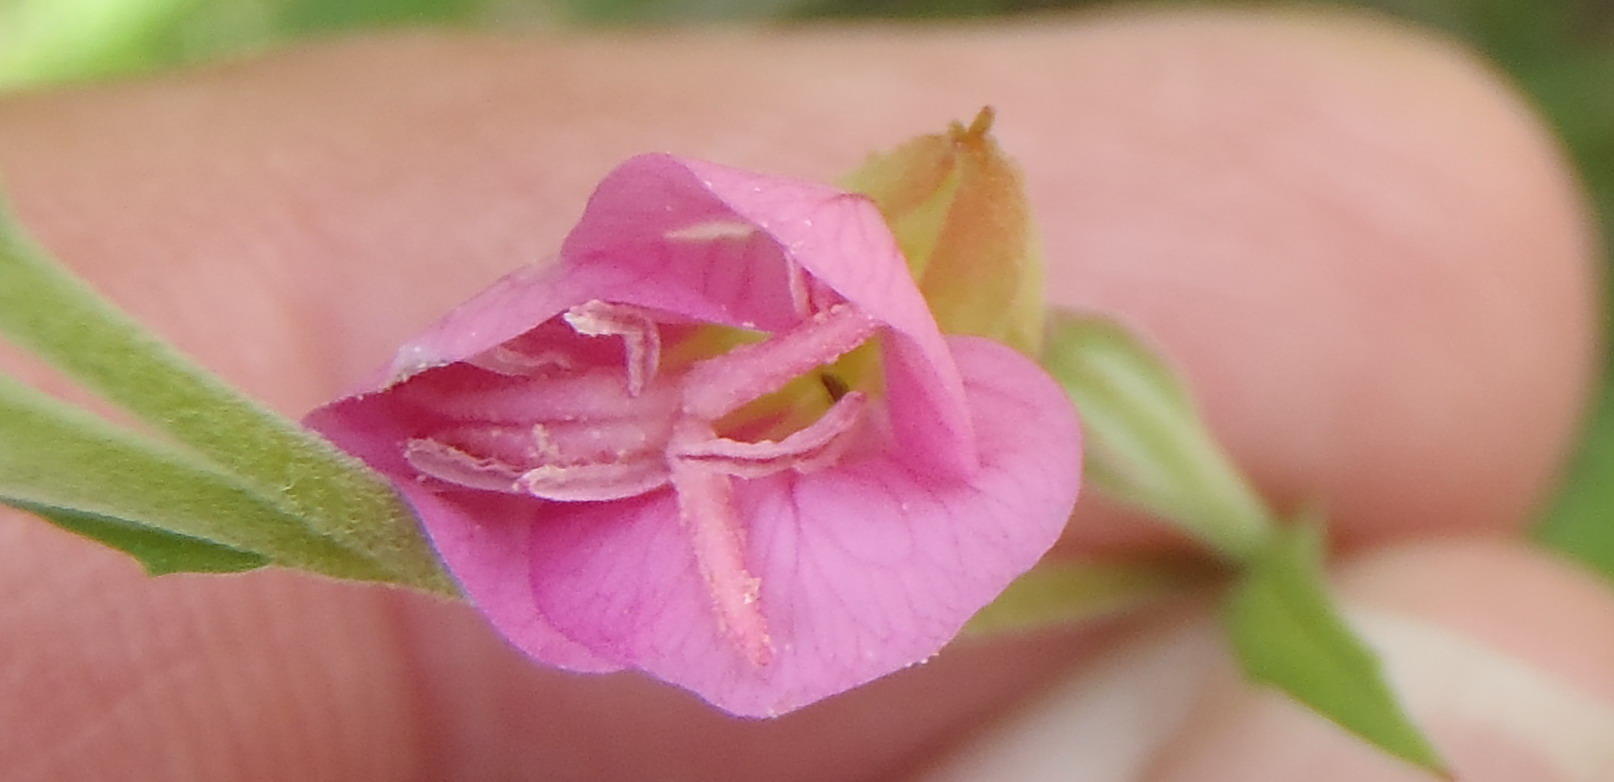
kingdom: Plantae
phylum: Tracheophyta
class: Magnoliopsida
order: Myrtales
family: Onagraceae
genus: Oenothera
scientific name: Oenothera rosea
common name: Rosy evening-primrose
